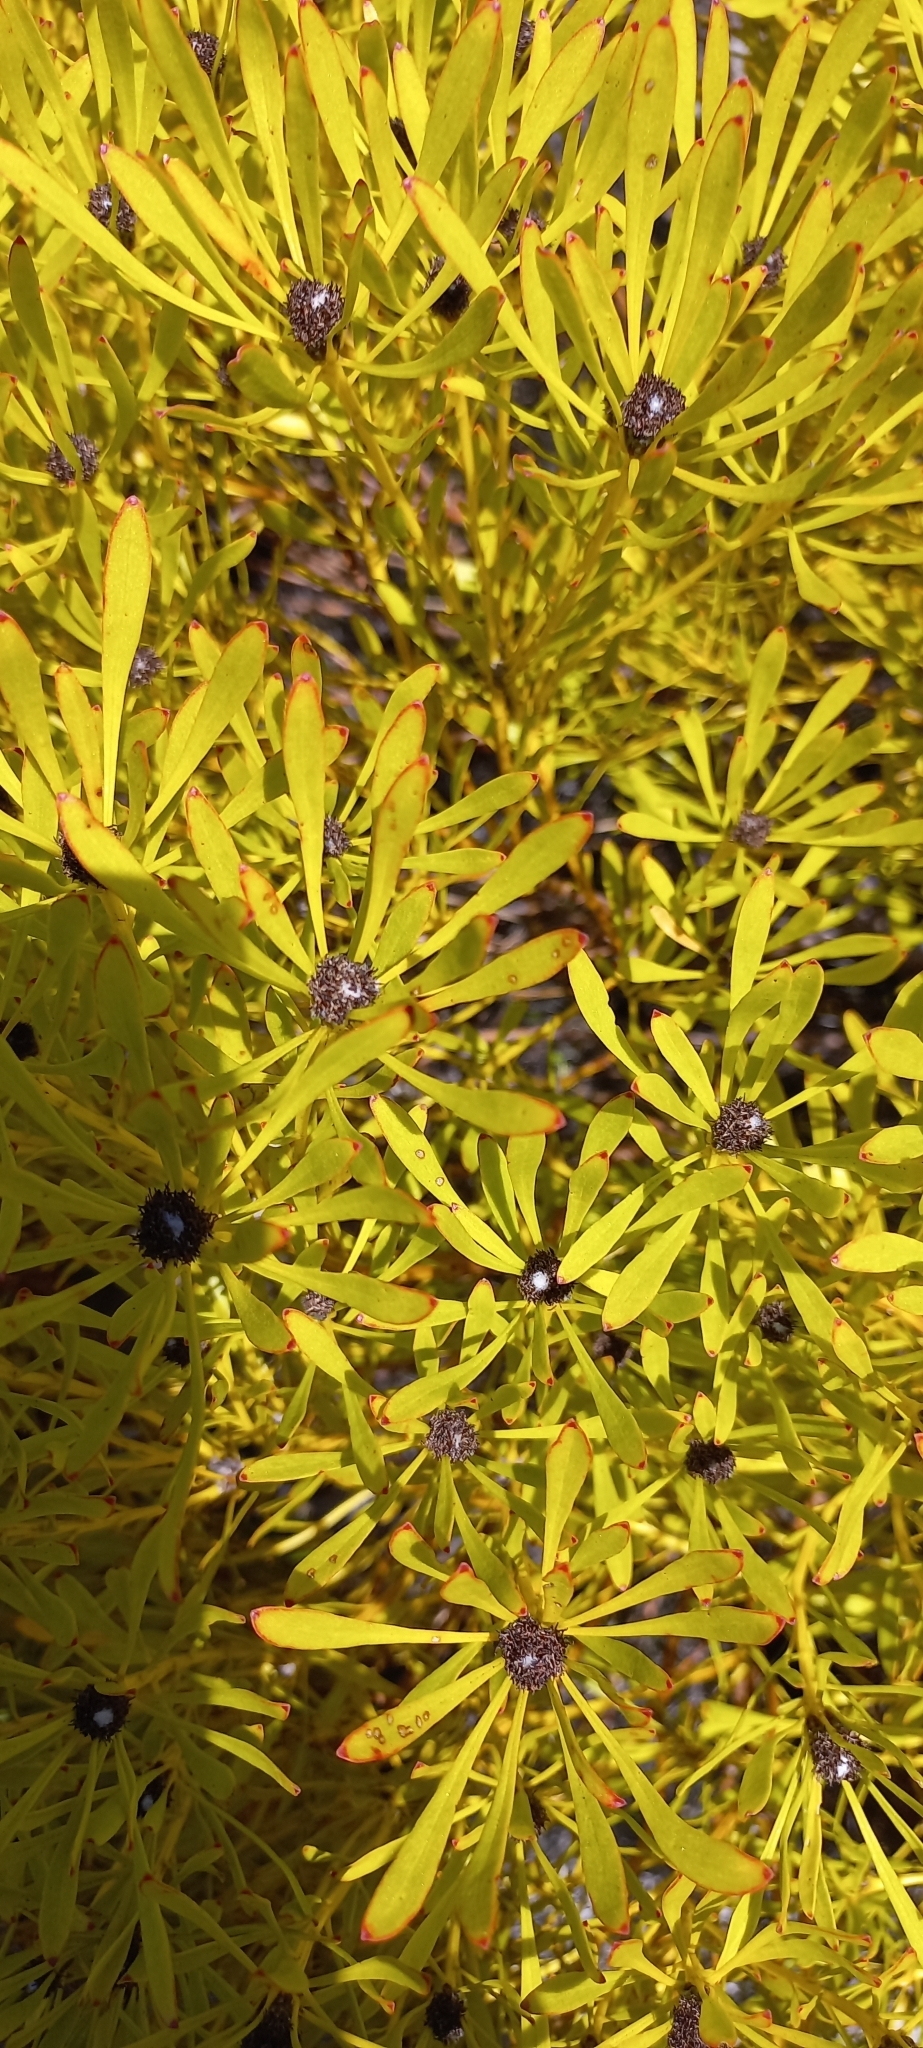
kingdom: Plantae
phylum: Tracheophyta
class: Magnoliopsida
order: Proteales
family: Proteaceae
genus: Leucadendron
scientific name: Leucadendron platyspermum
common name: Plate-seed conebush
